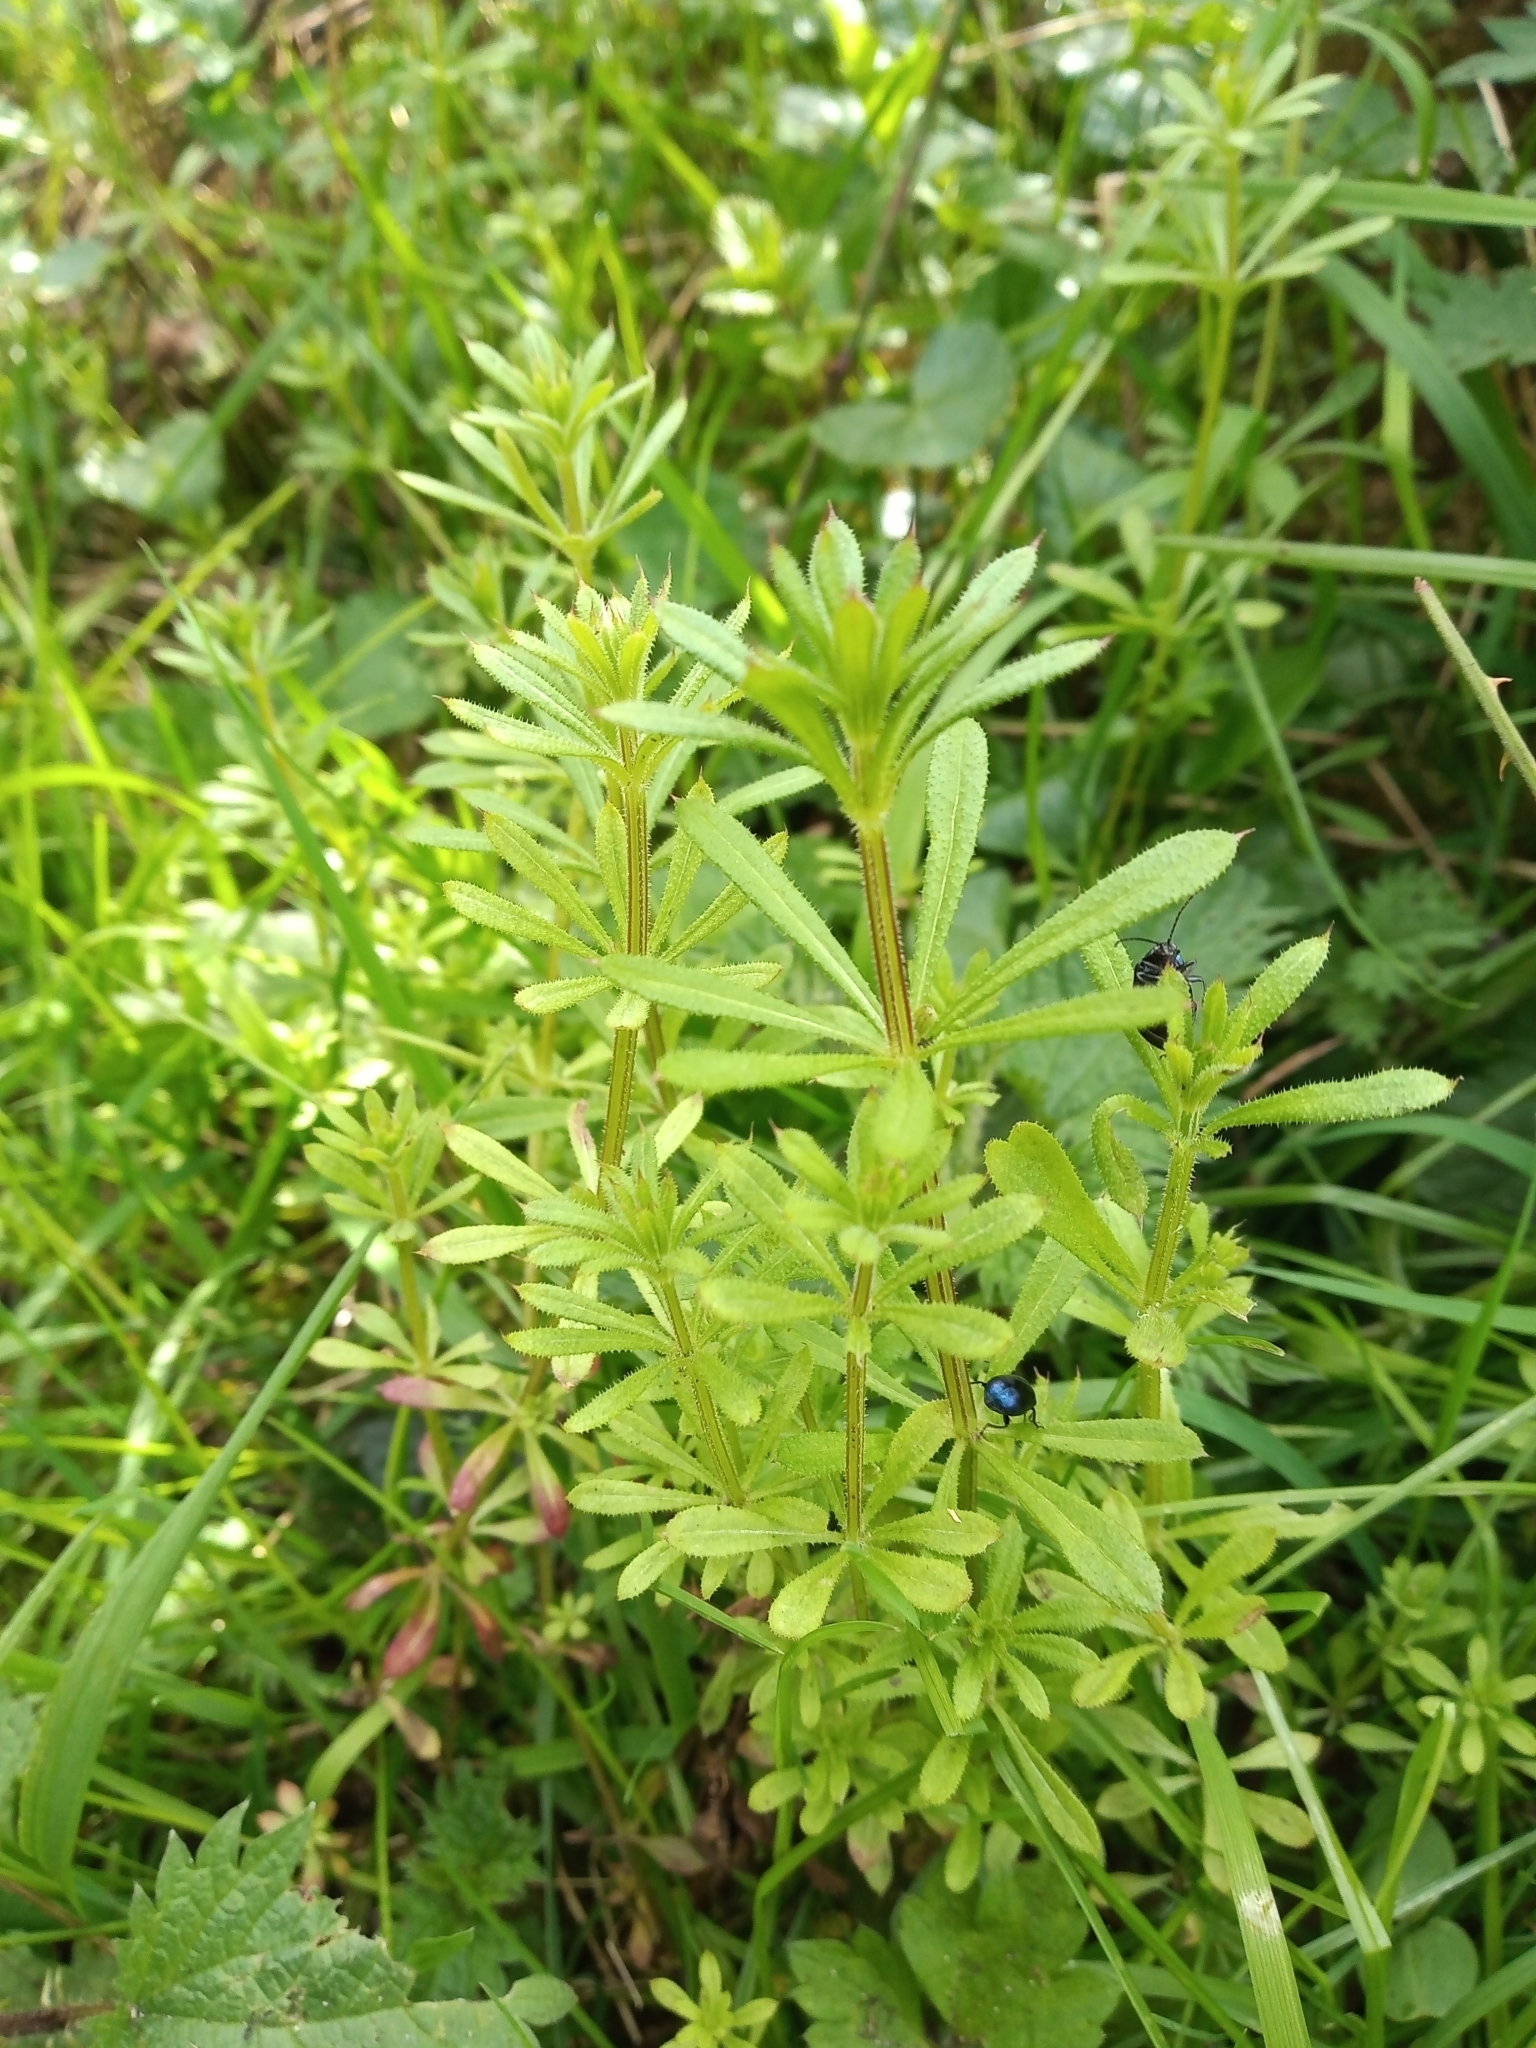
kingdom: Plantae
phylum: Tracheophyta
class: Magnoliopsida
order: Gentianales
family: Rubiaceae
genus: Galium
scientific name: Galium aparine
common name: Cleavers
